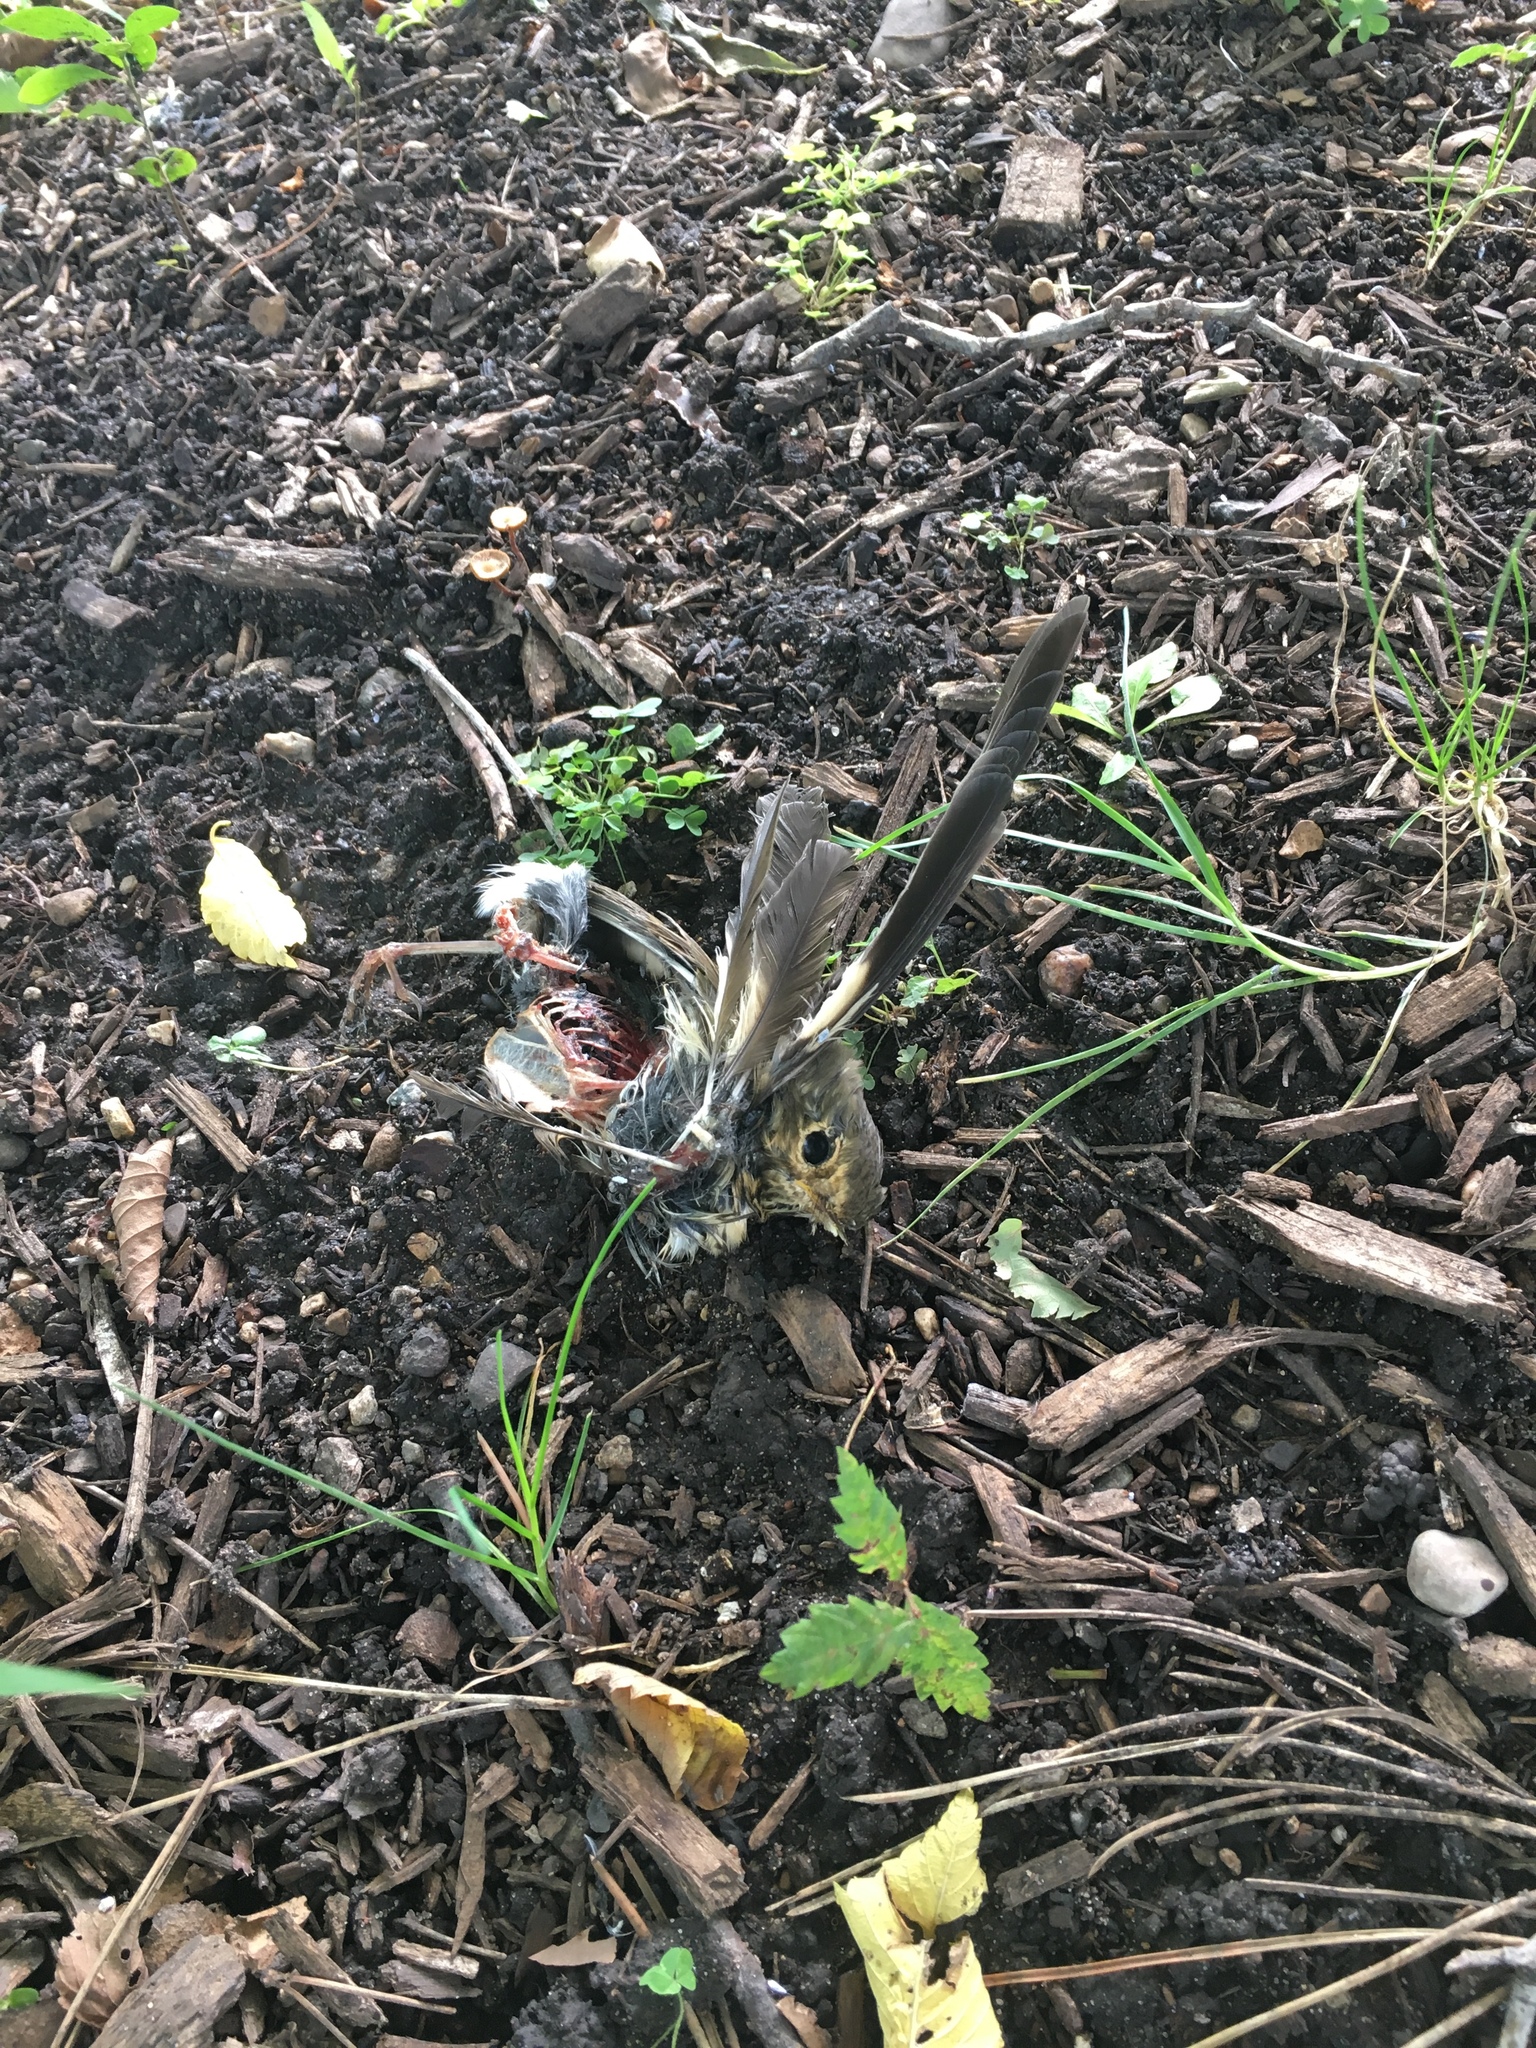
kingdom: Animalia
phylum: Chordata
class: Aves
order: Passeriformes
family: Turdidae
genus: Catharus
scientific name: Catharus ustulatus
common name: Swainson's thrush
